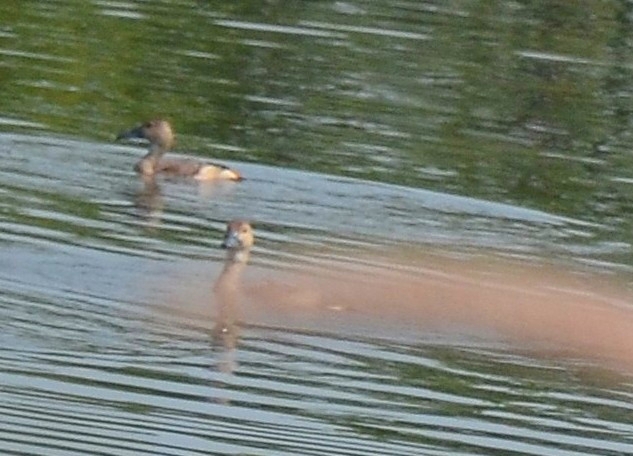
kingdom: Animalia
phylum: Chordata
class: Aves
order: Anseriformes
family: Anatidae
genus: Dendrocygna
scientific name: Dendrocygna javanica
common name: Lesser whistling-duck
